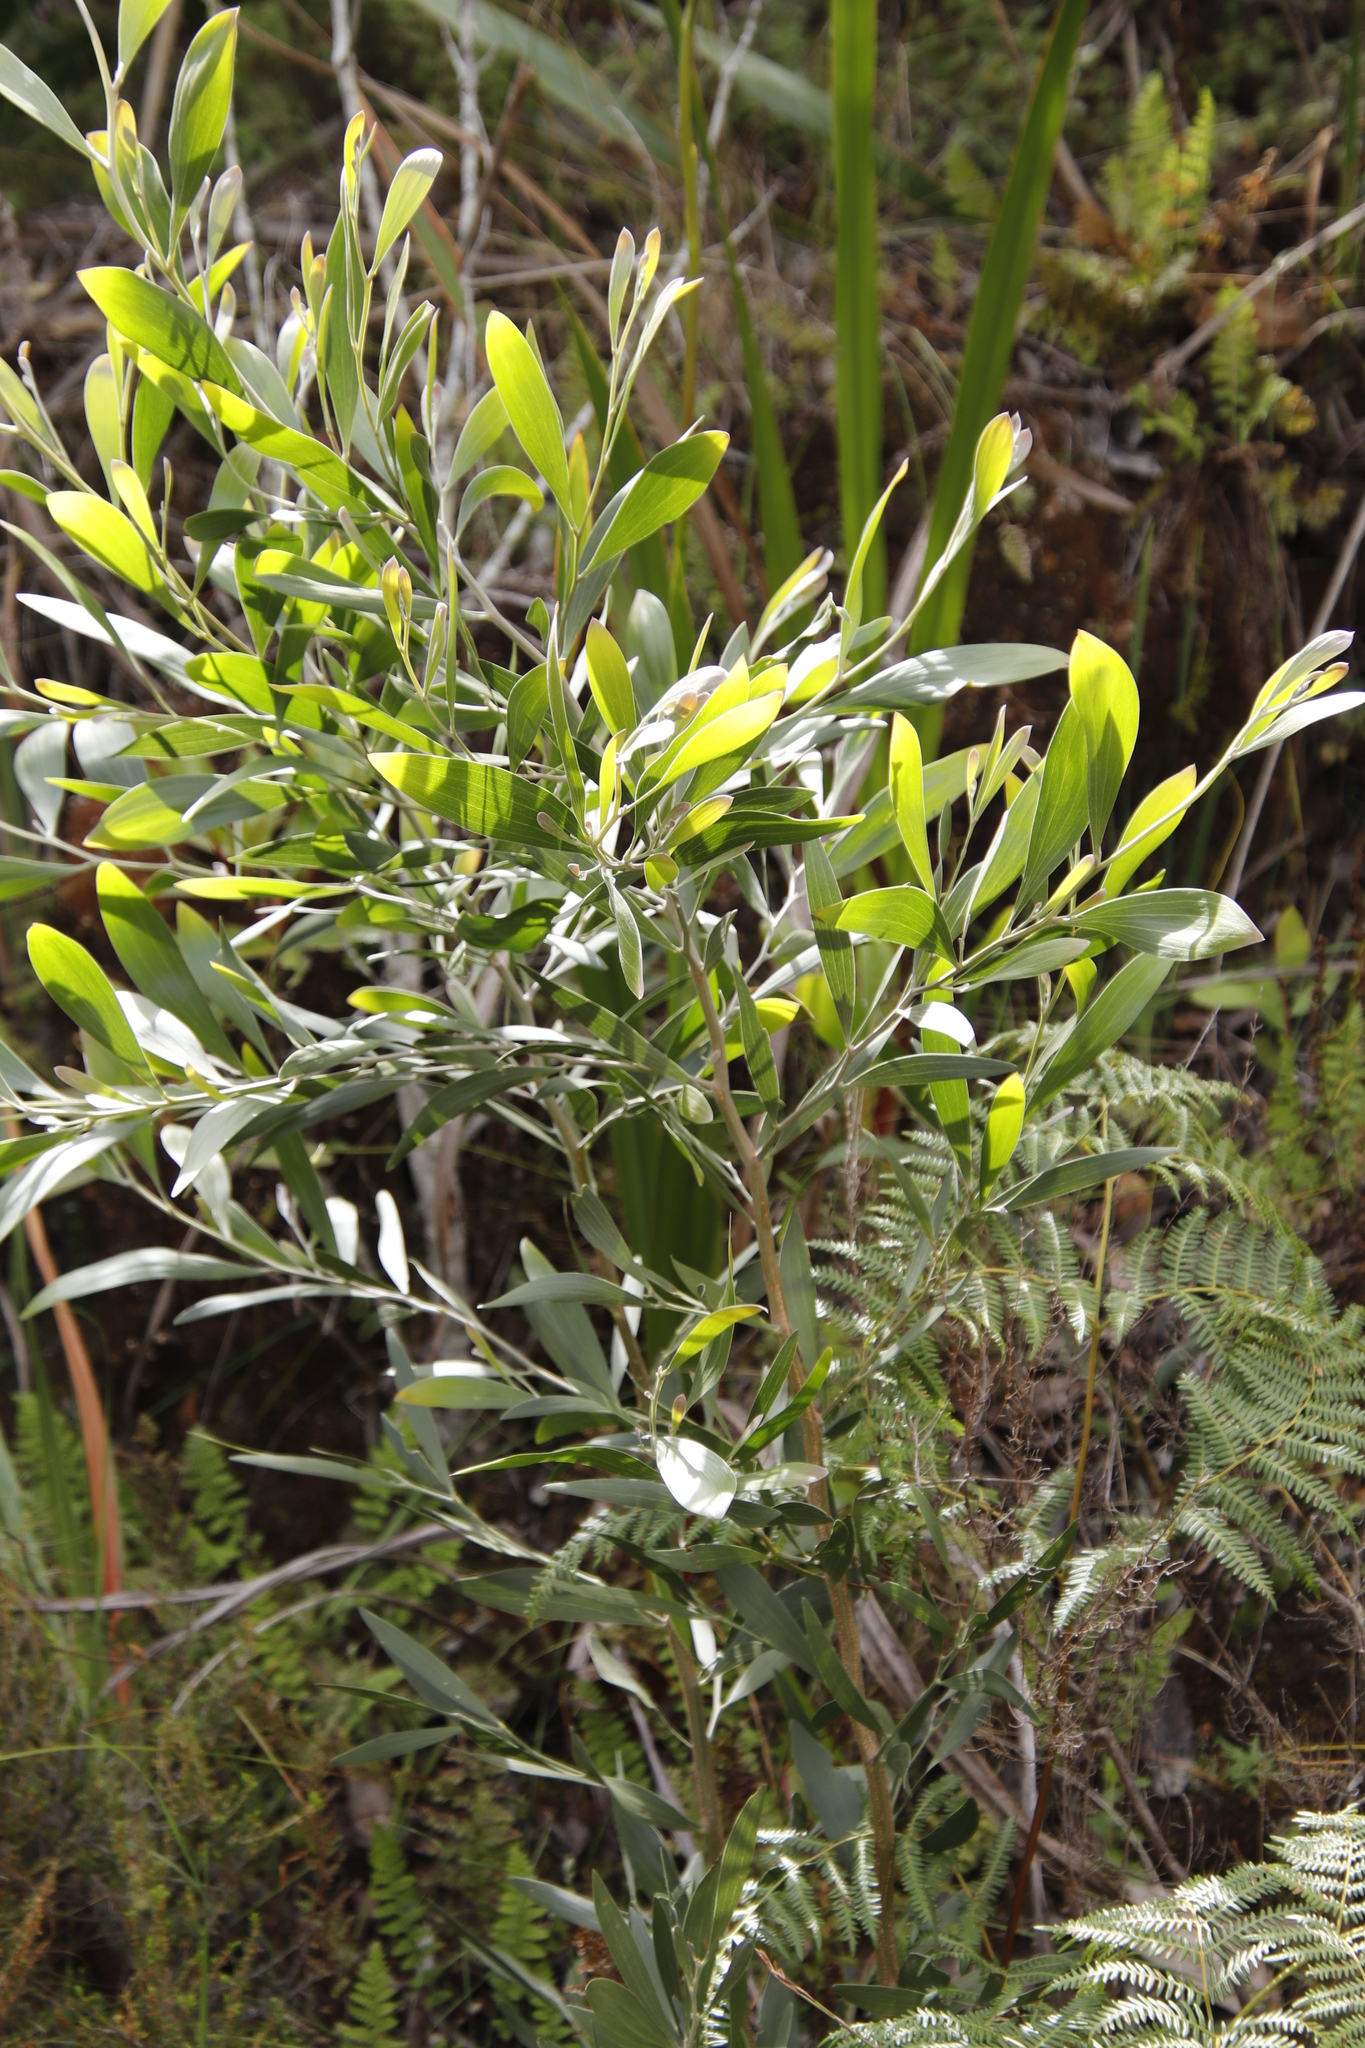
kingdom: Plantae
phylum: Tracheophyta
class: Magnoliopsida
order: Fabales
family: Fabaceae
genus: Acacia
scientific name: Acacia melanoxylon
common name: Blackwood
